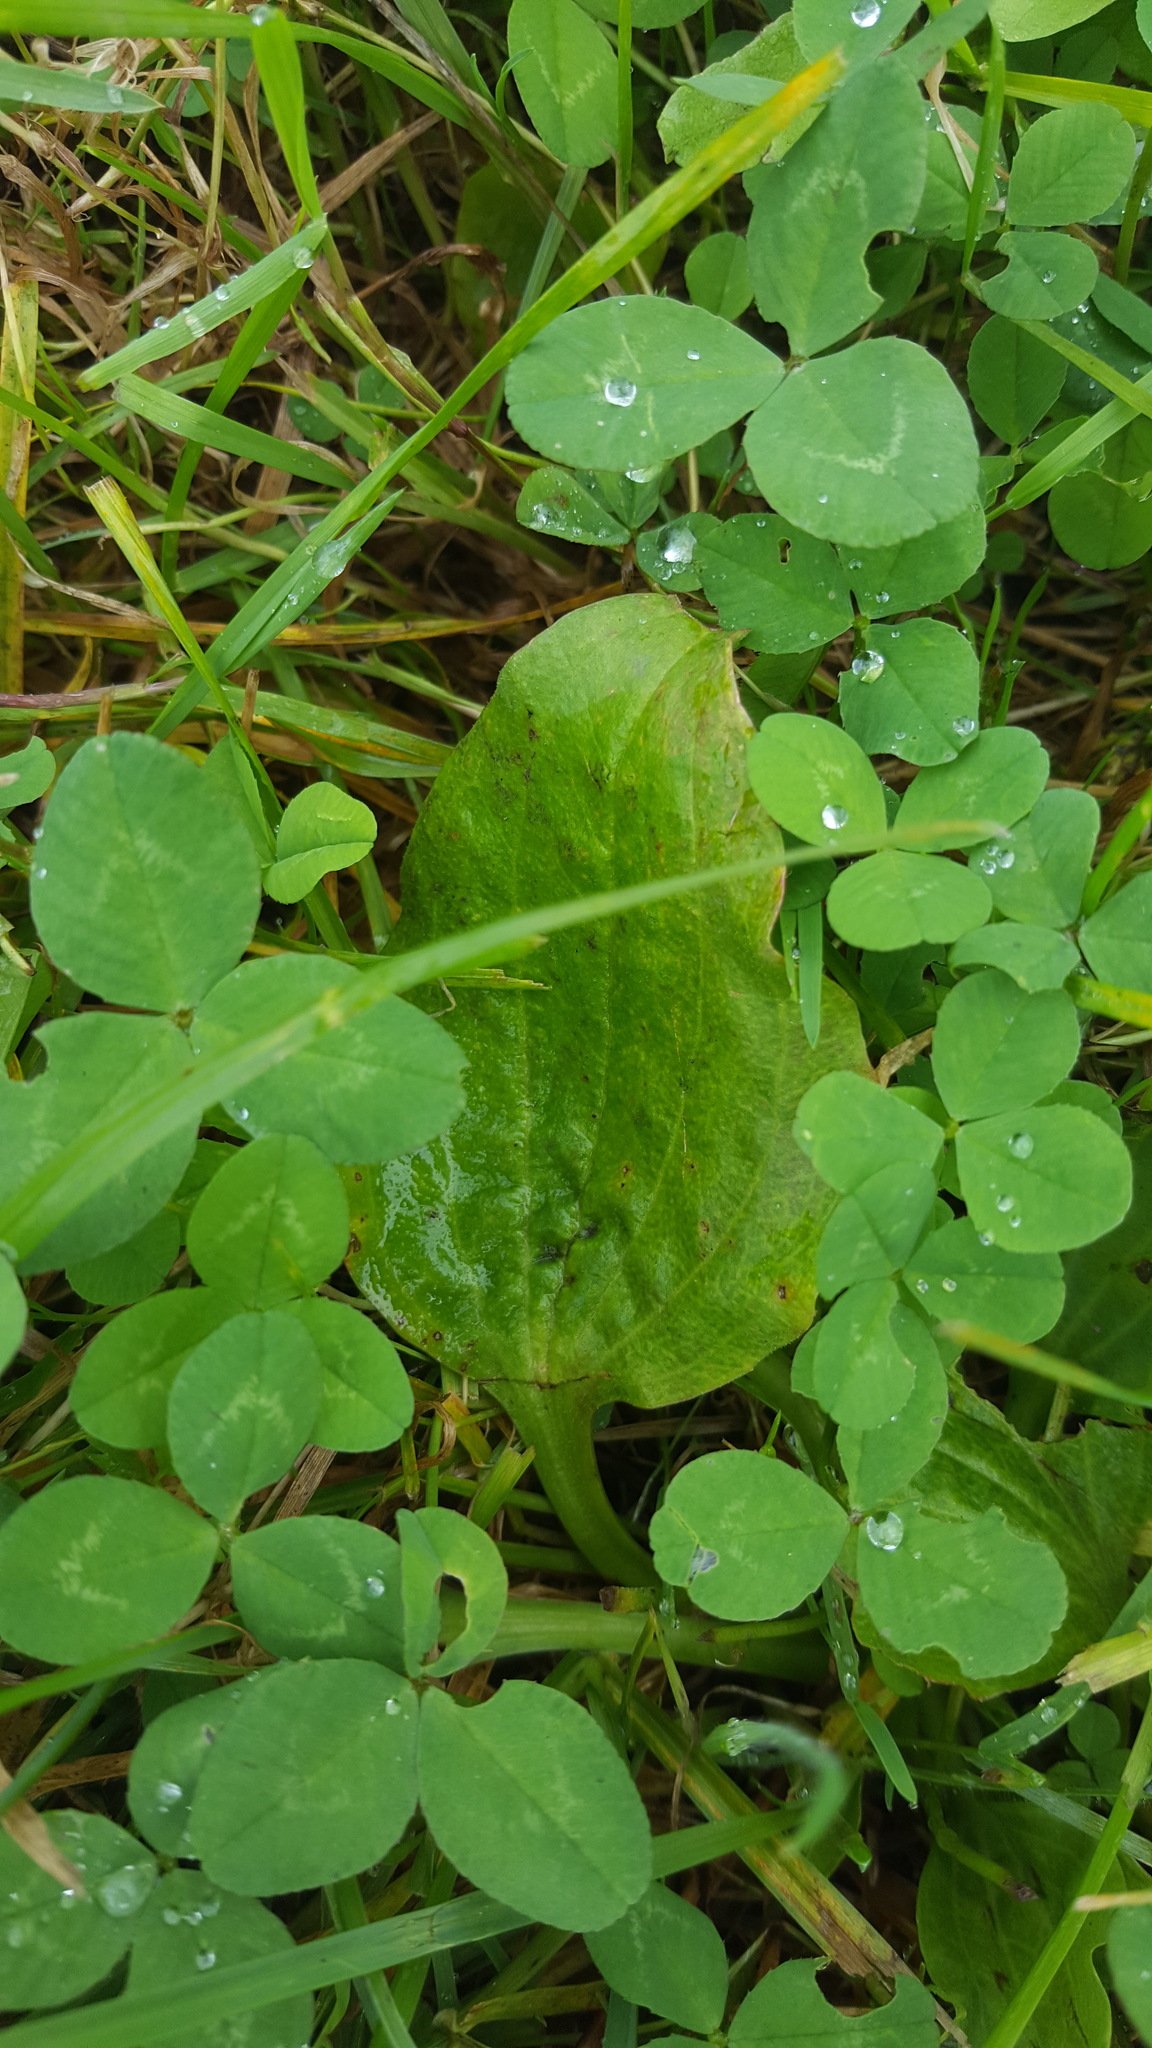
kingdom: Plantae
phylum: Tracheophyta
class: Magnoliopsida
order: Lamiales
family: Plantaginaceae
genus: Plantago
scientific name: Plantago major
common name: Common plantain
